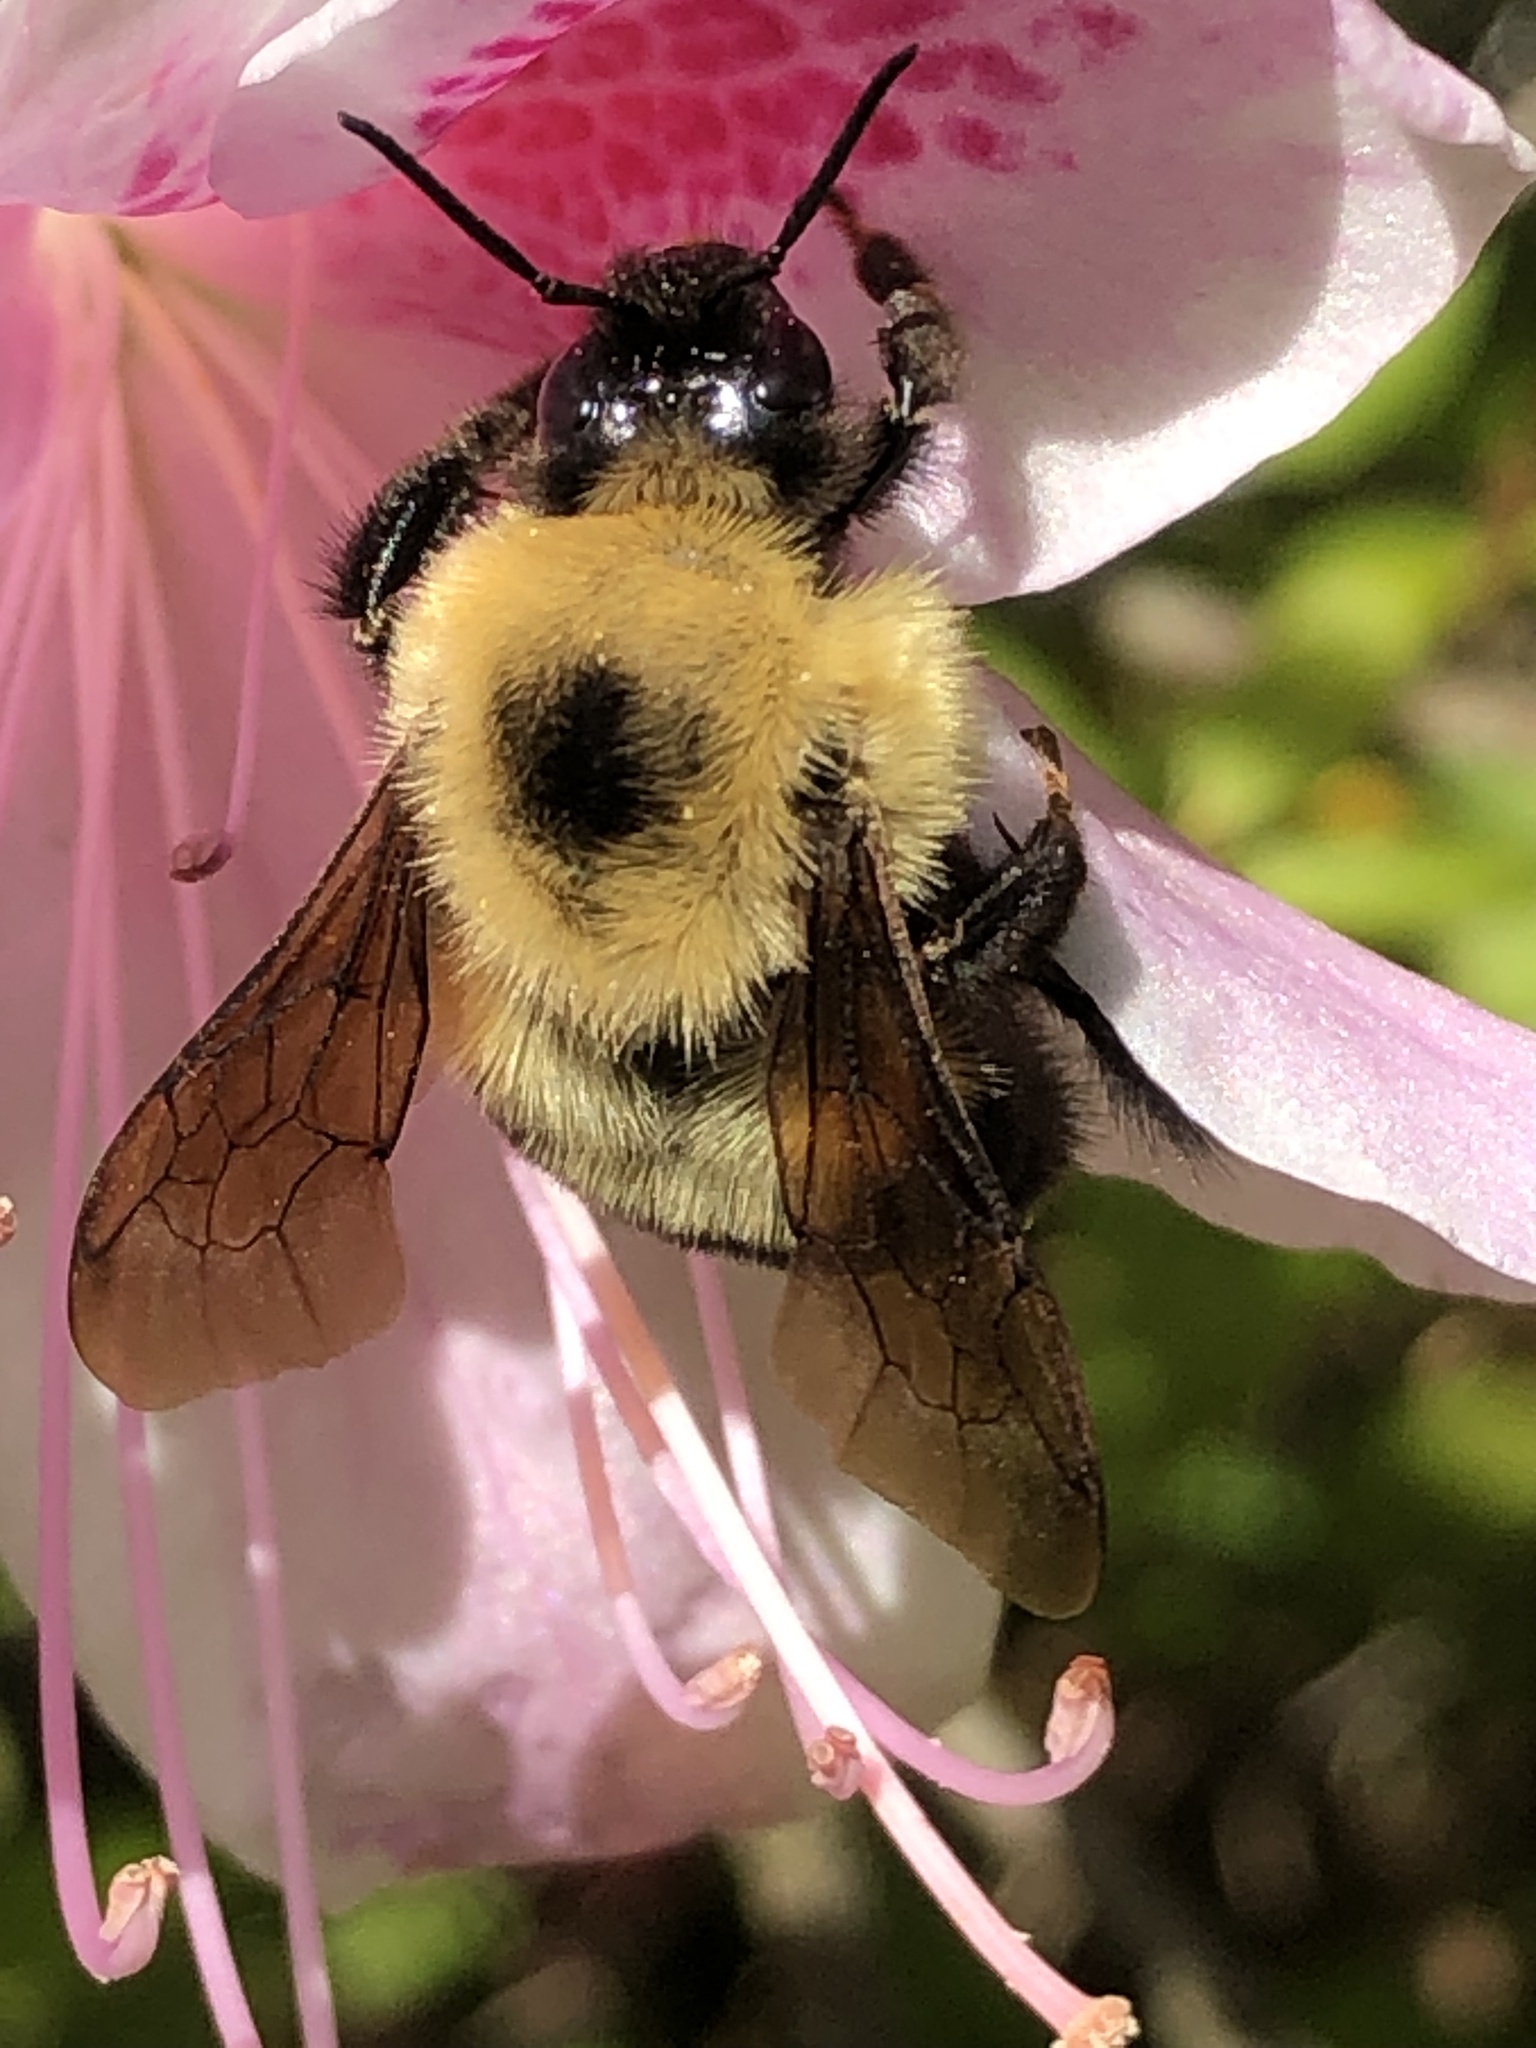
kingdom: Animalia
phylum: Arthropoda
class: Insecta
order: Hymenoptera
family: Apidae
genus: Bombus
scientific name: Bombus bimaculatus
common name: Two-spotted bumble bee
